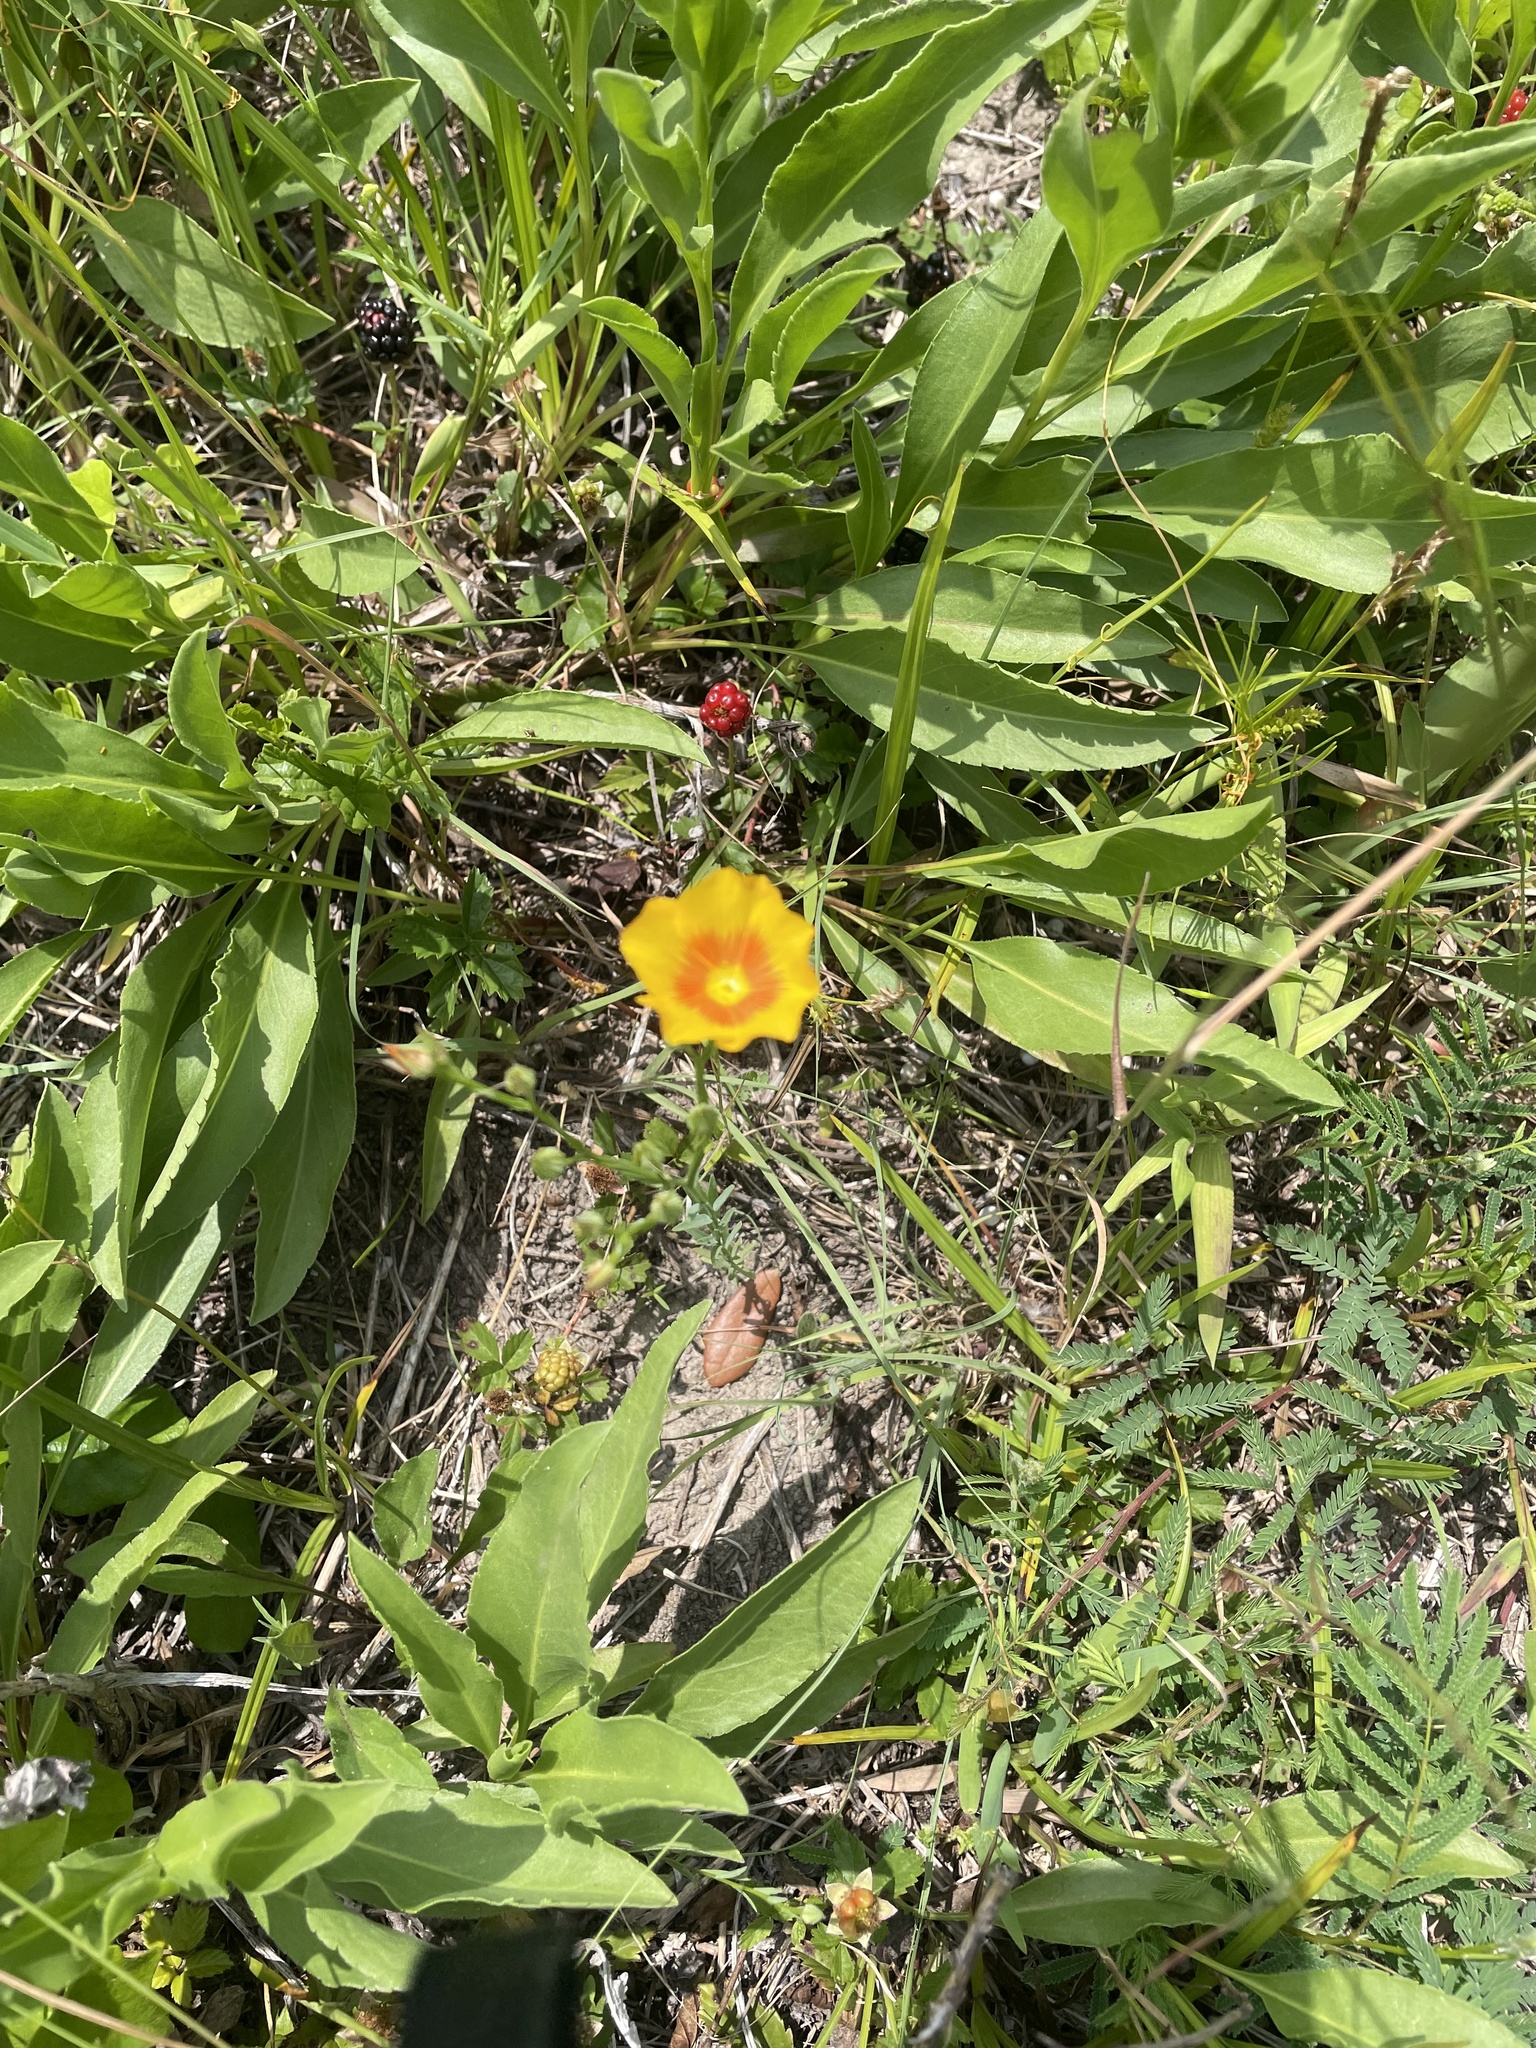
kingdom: Plantae
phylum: Tracheophyta
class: Magnoliopsida
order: Malpighiales
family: Linaceae
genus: Linum
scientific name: Linum rigidum
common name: Stiff-stem flax
